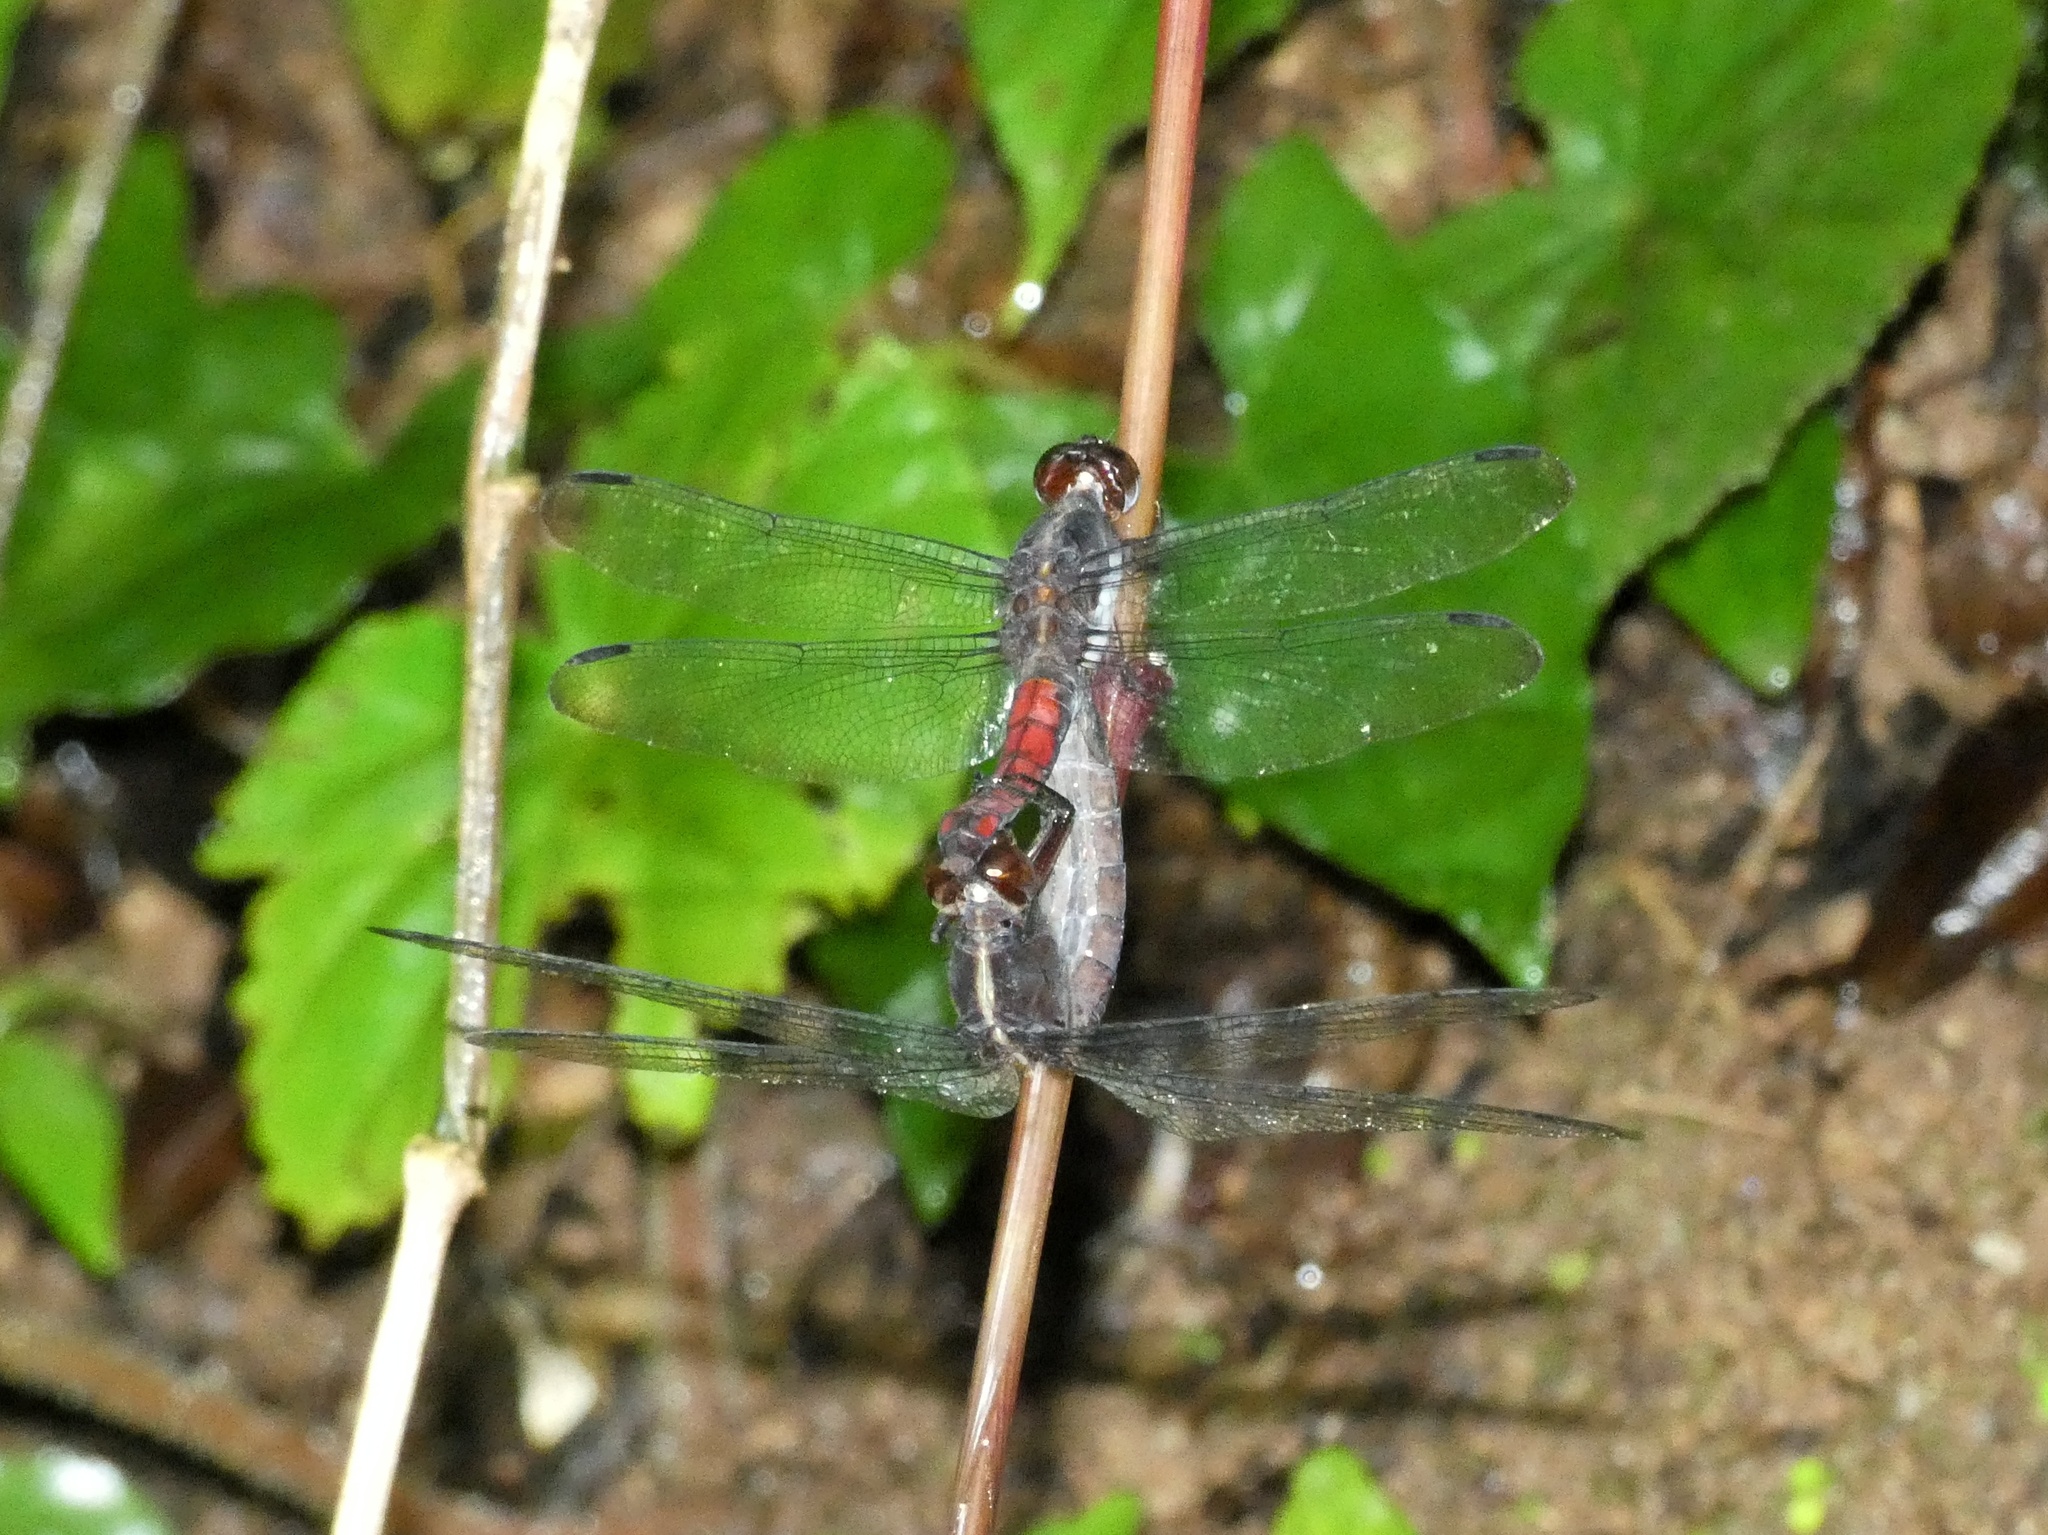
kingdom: Animalia
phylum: Arthropoda
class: Insecta
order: Odonata
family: Libellulidae
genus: Libellula
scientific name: Libellula herculea
